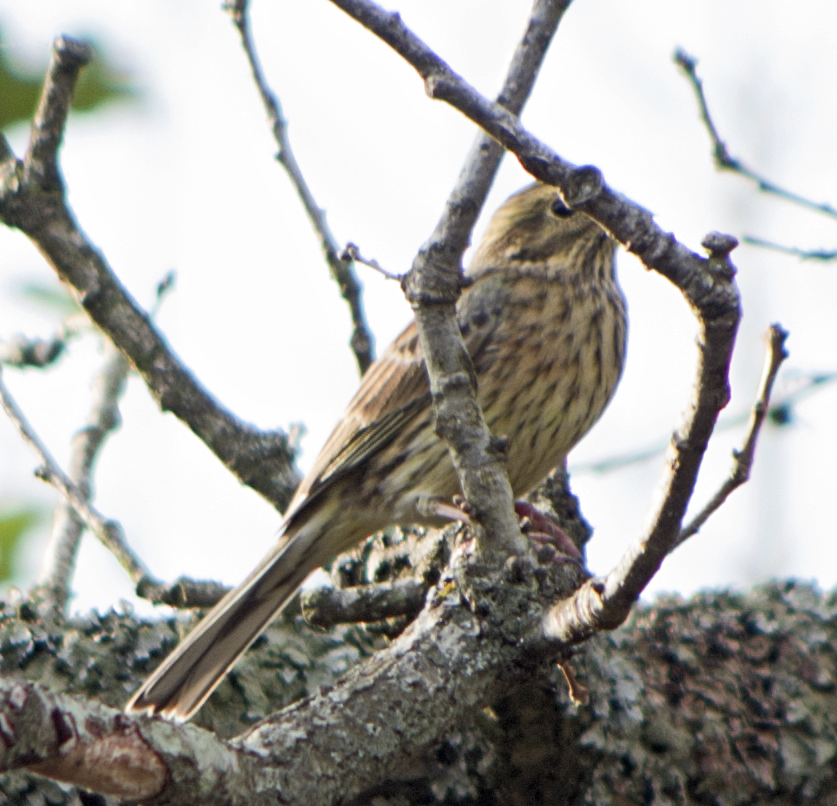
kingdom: Animalia
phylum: Chordata
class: Aves
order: Passeriformes
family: Emberizidae
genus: Emberiza
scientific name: Emberiza cirlus
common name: Cirl bunting
